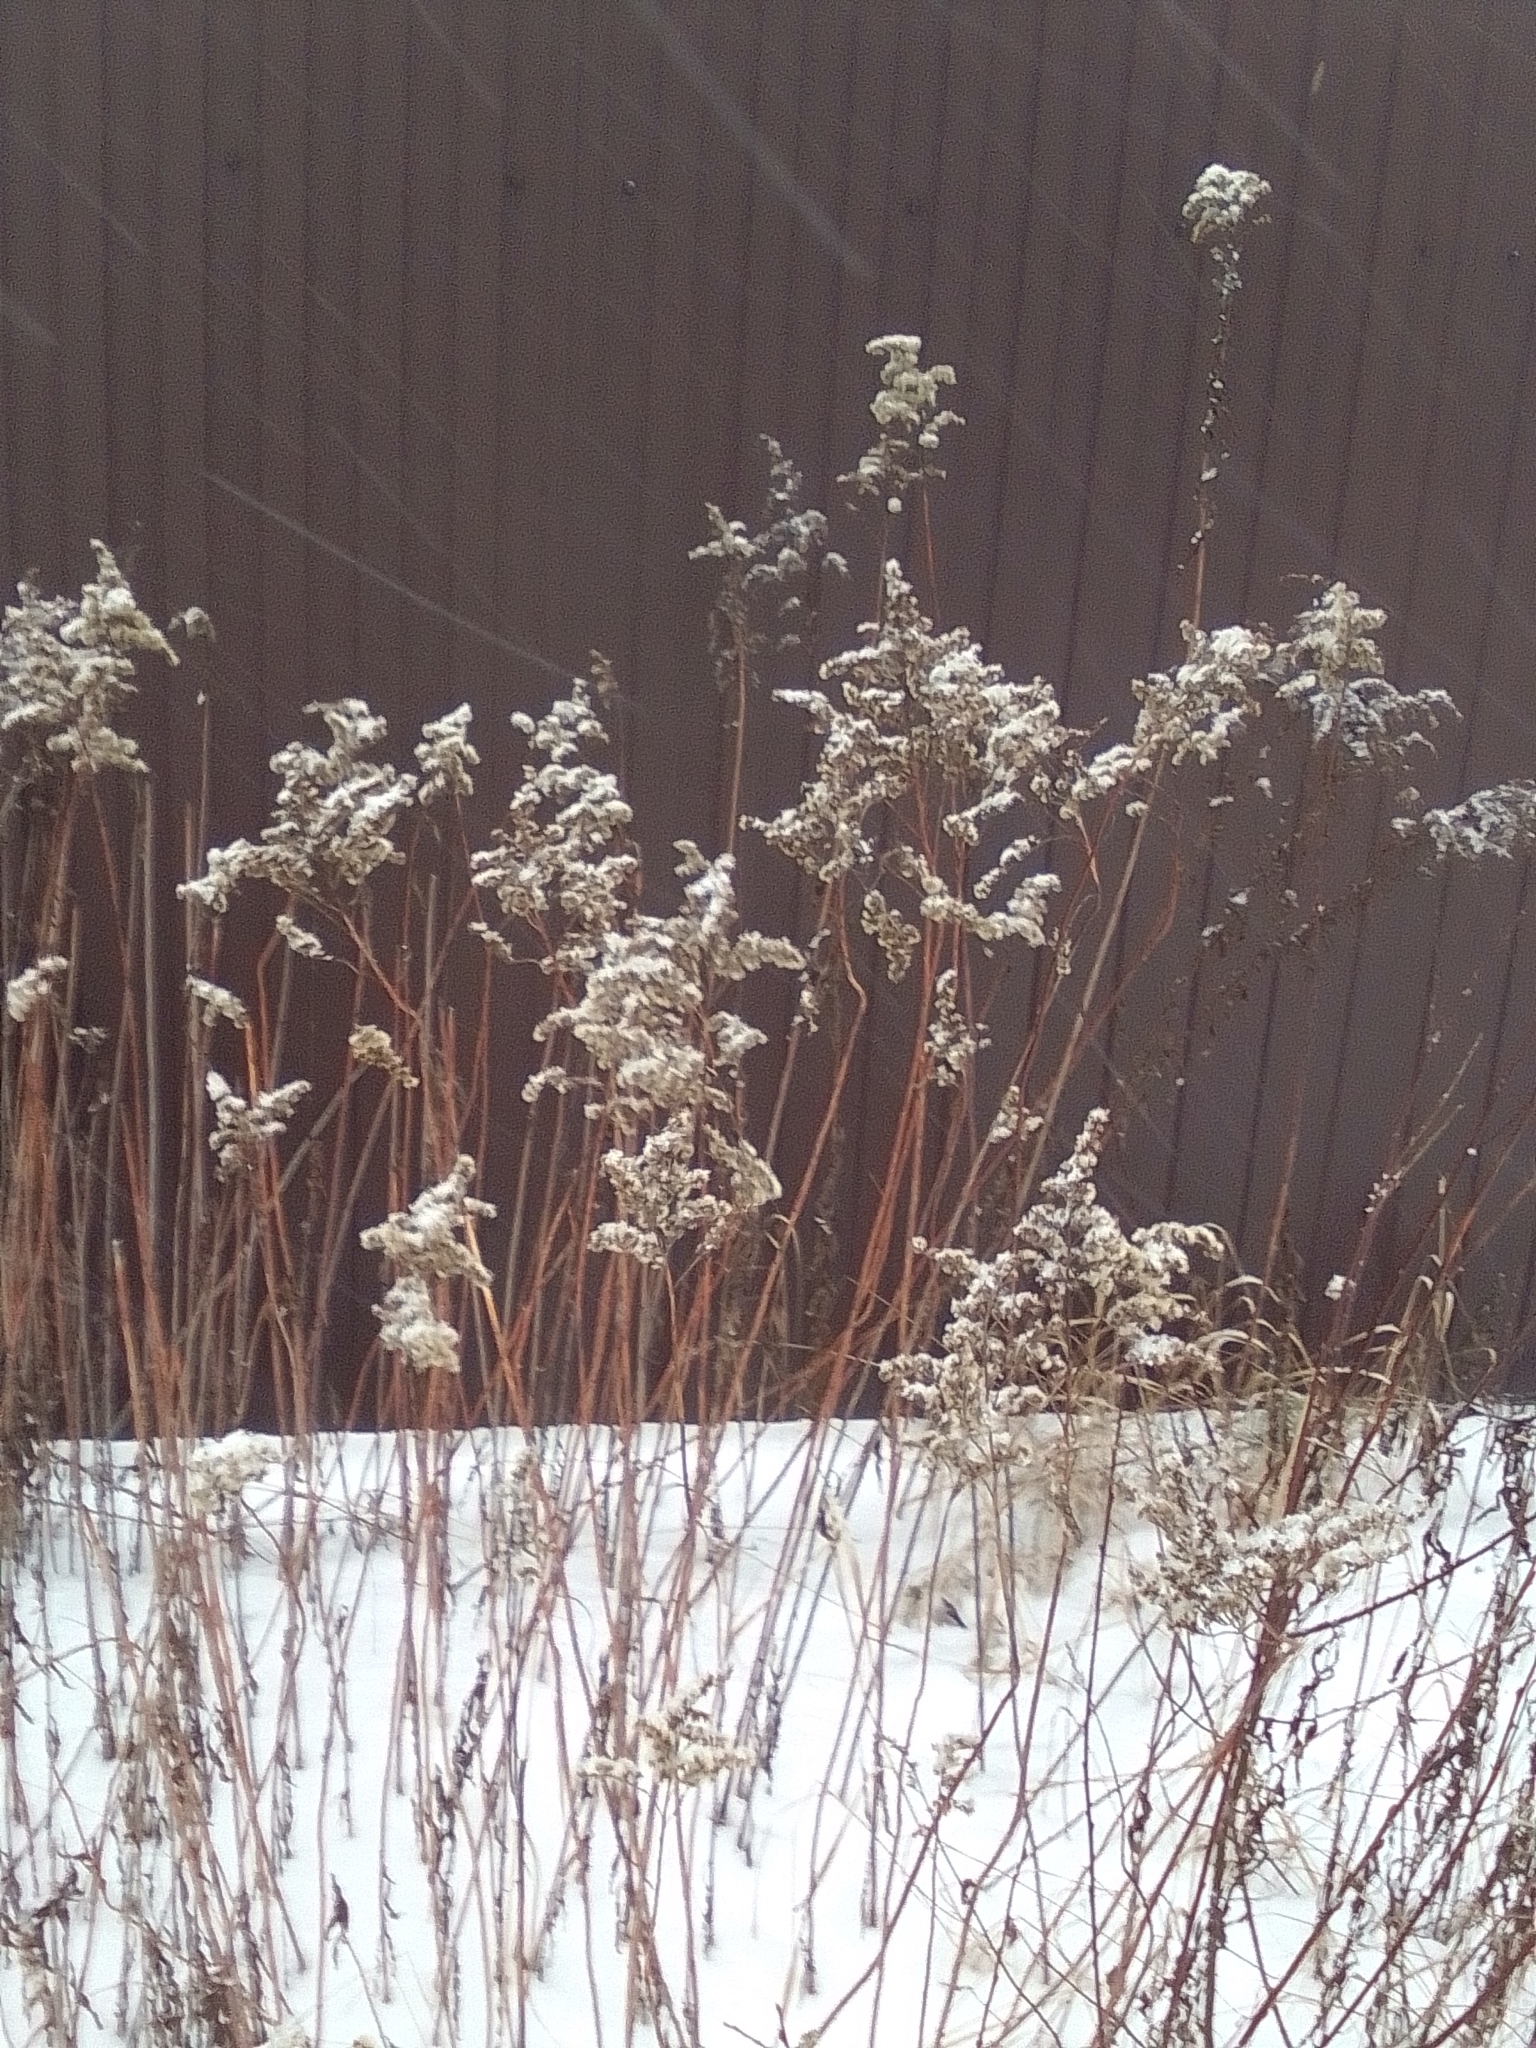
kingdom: Plantae
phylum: Tracheophyta
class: Magnoliopsida
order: Asterales
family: Asteraceae
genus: Solidago
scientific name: Solidago gigantea
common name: Giant goldenrod
